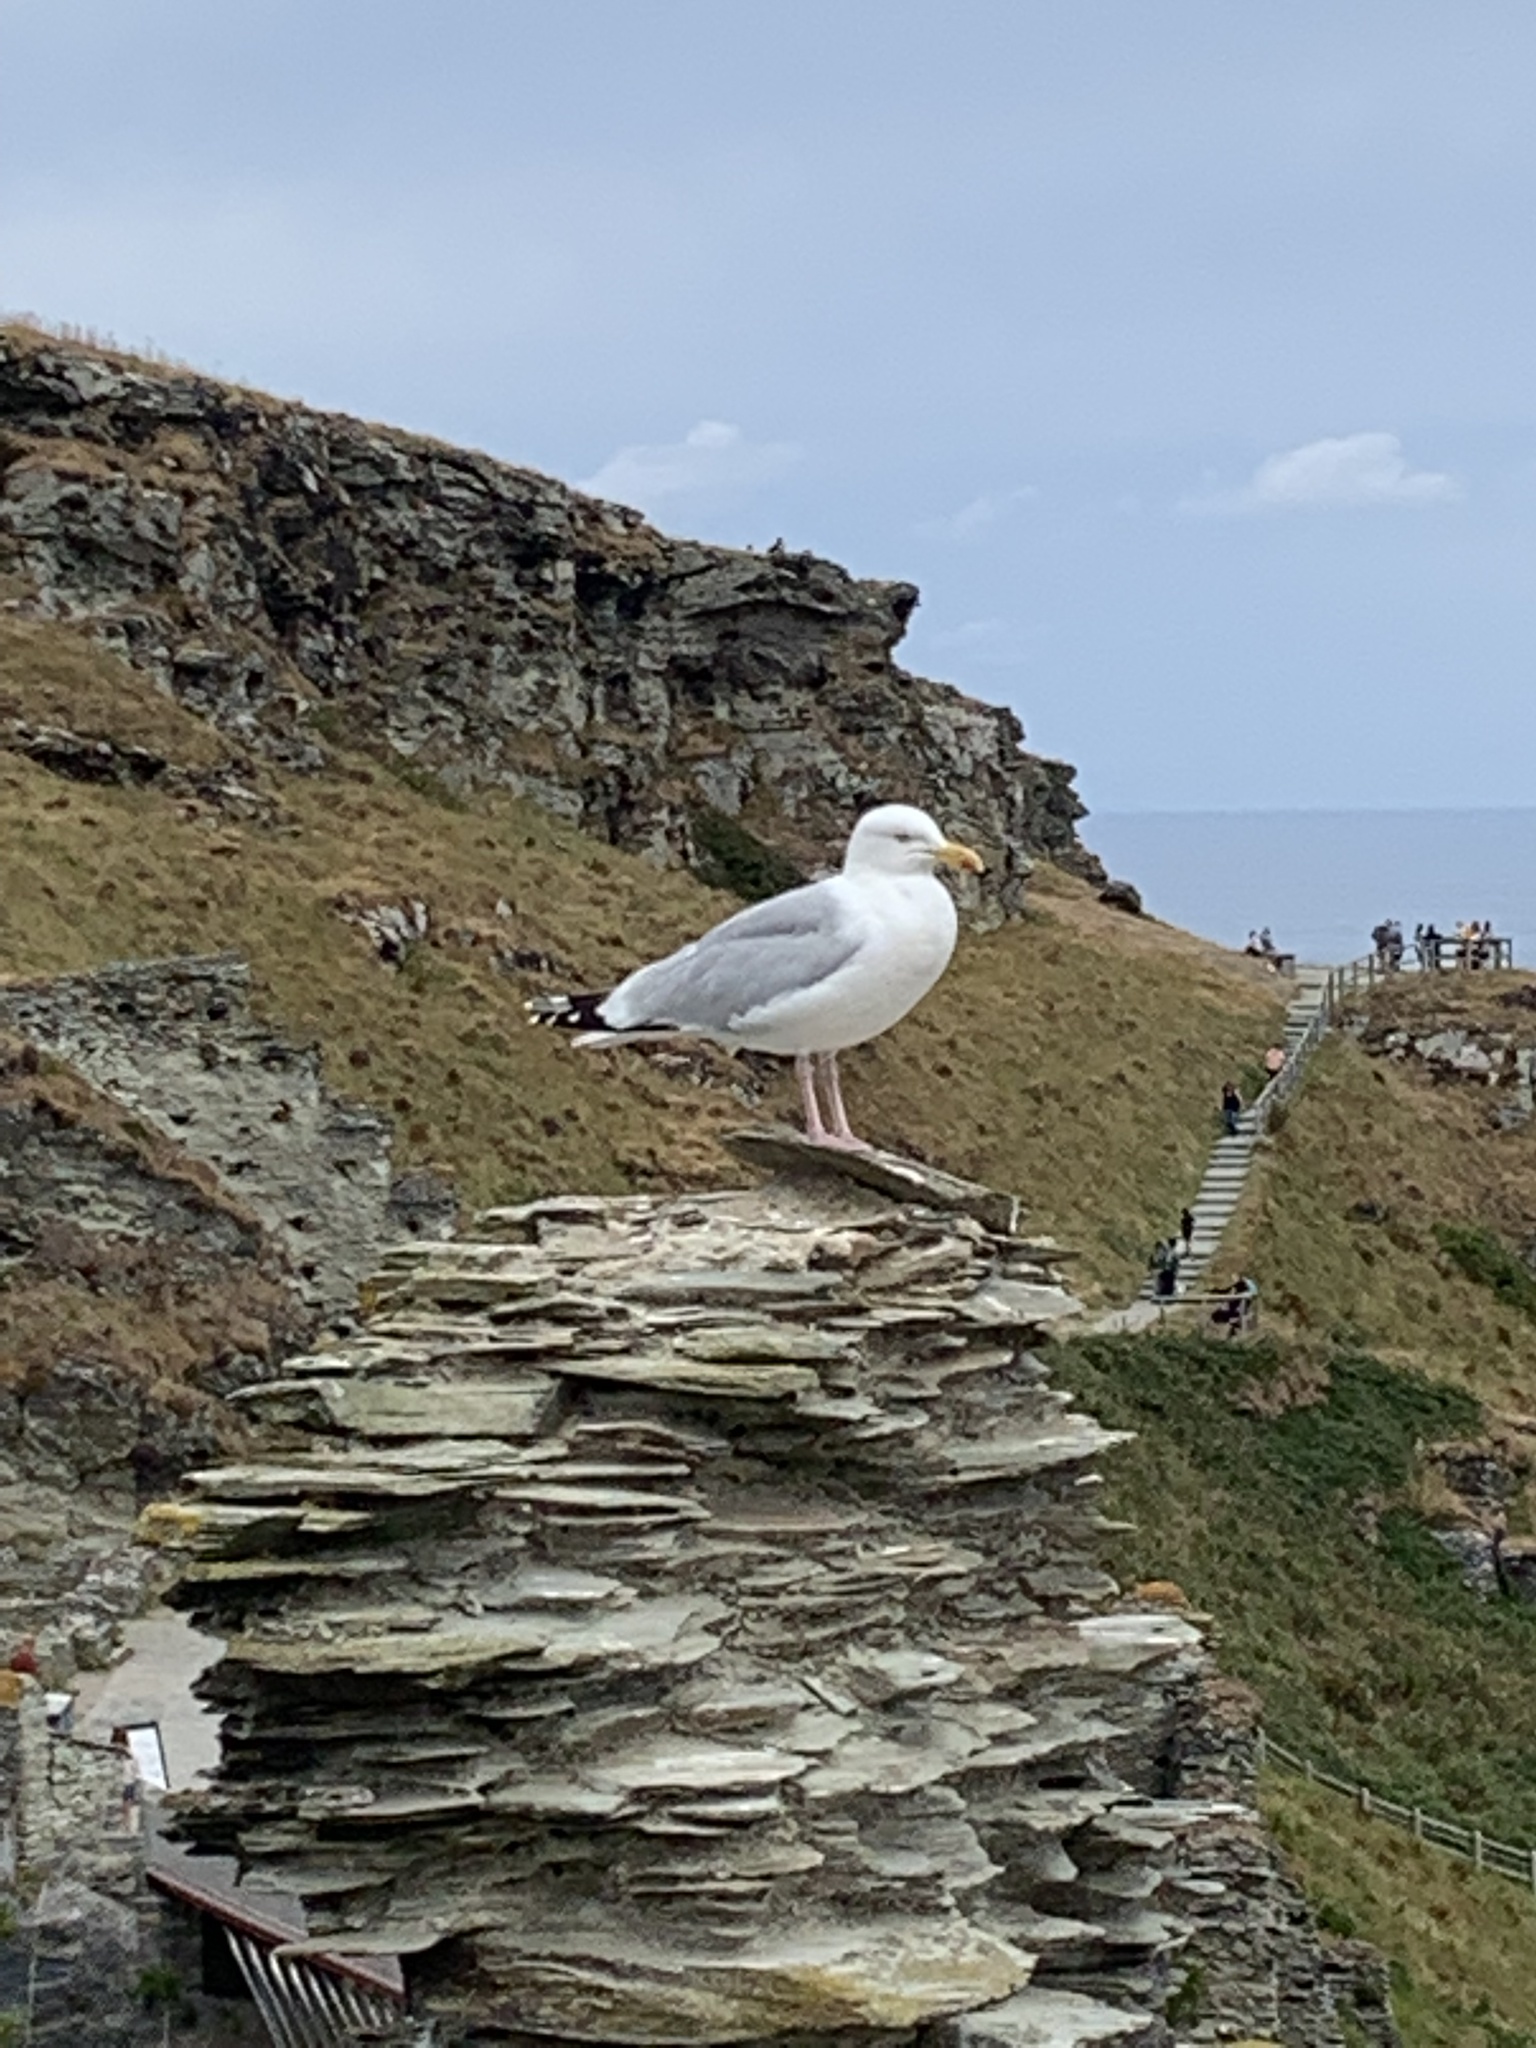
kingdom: Animalia
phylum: Chordata
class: Aves
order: Charadriiformes
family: Laridae
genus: Larus
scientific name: Larus argentatus
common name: Herring gull
